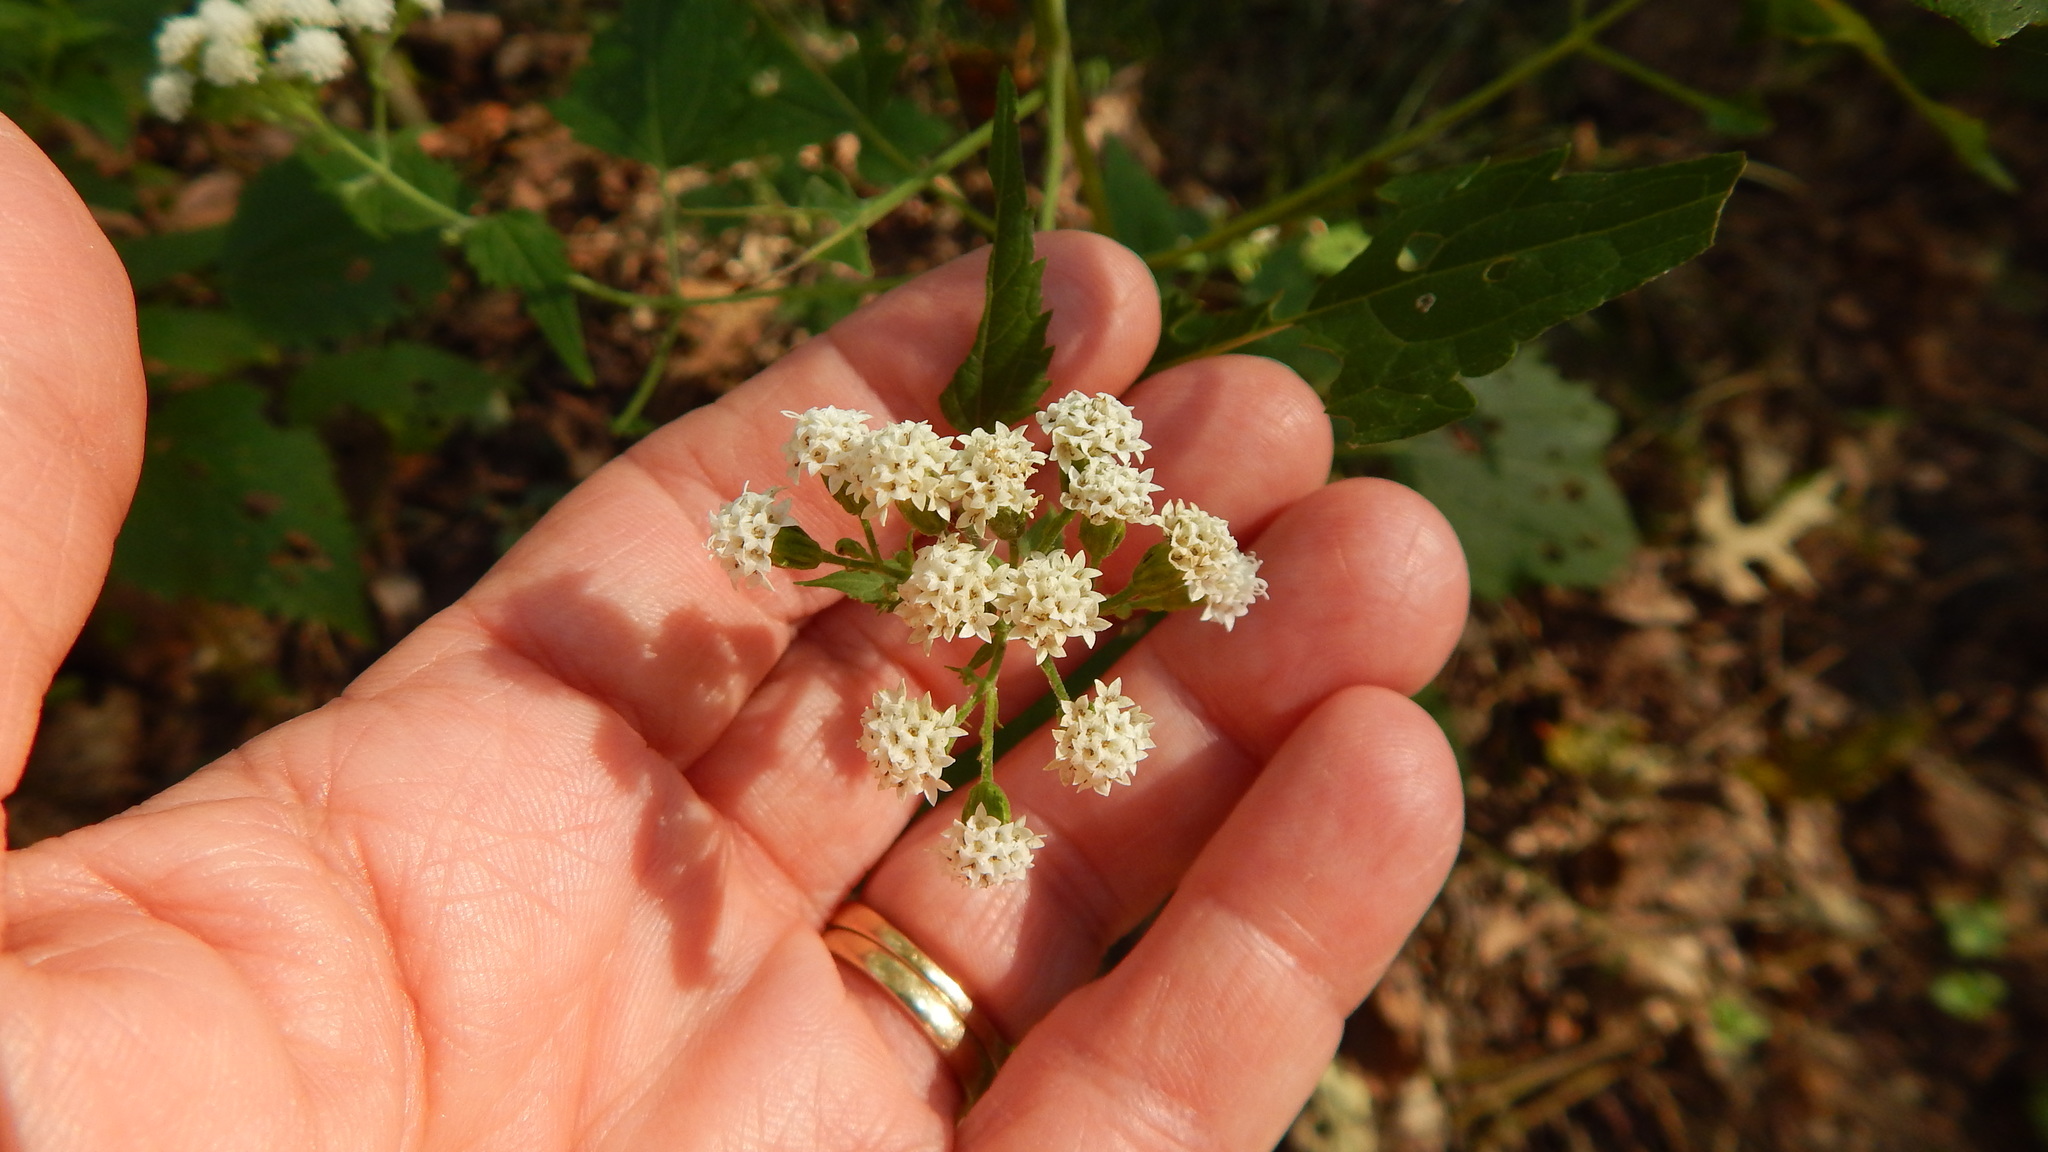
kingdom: Plantae
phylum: Tracheophyta
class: Magnoliopsida
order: Asterales
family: Asteraceae
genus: Ageratina
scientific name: Ageratina altissima
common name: White snakeroot
